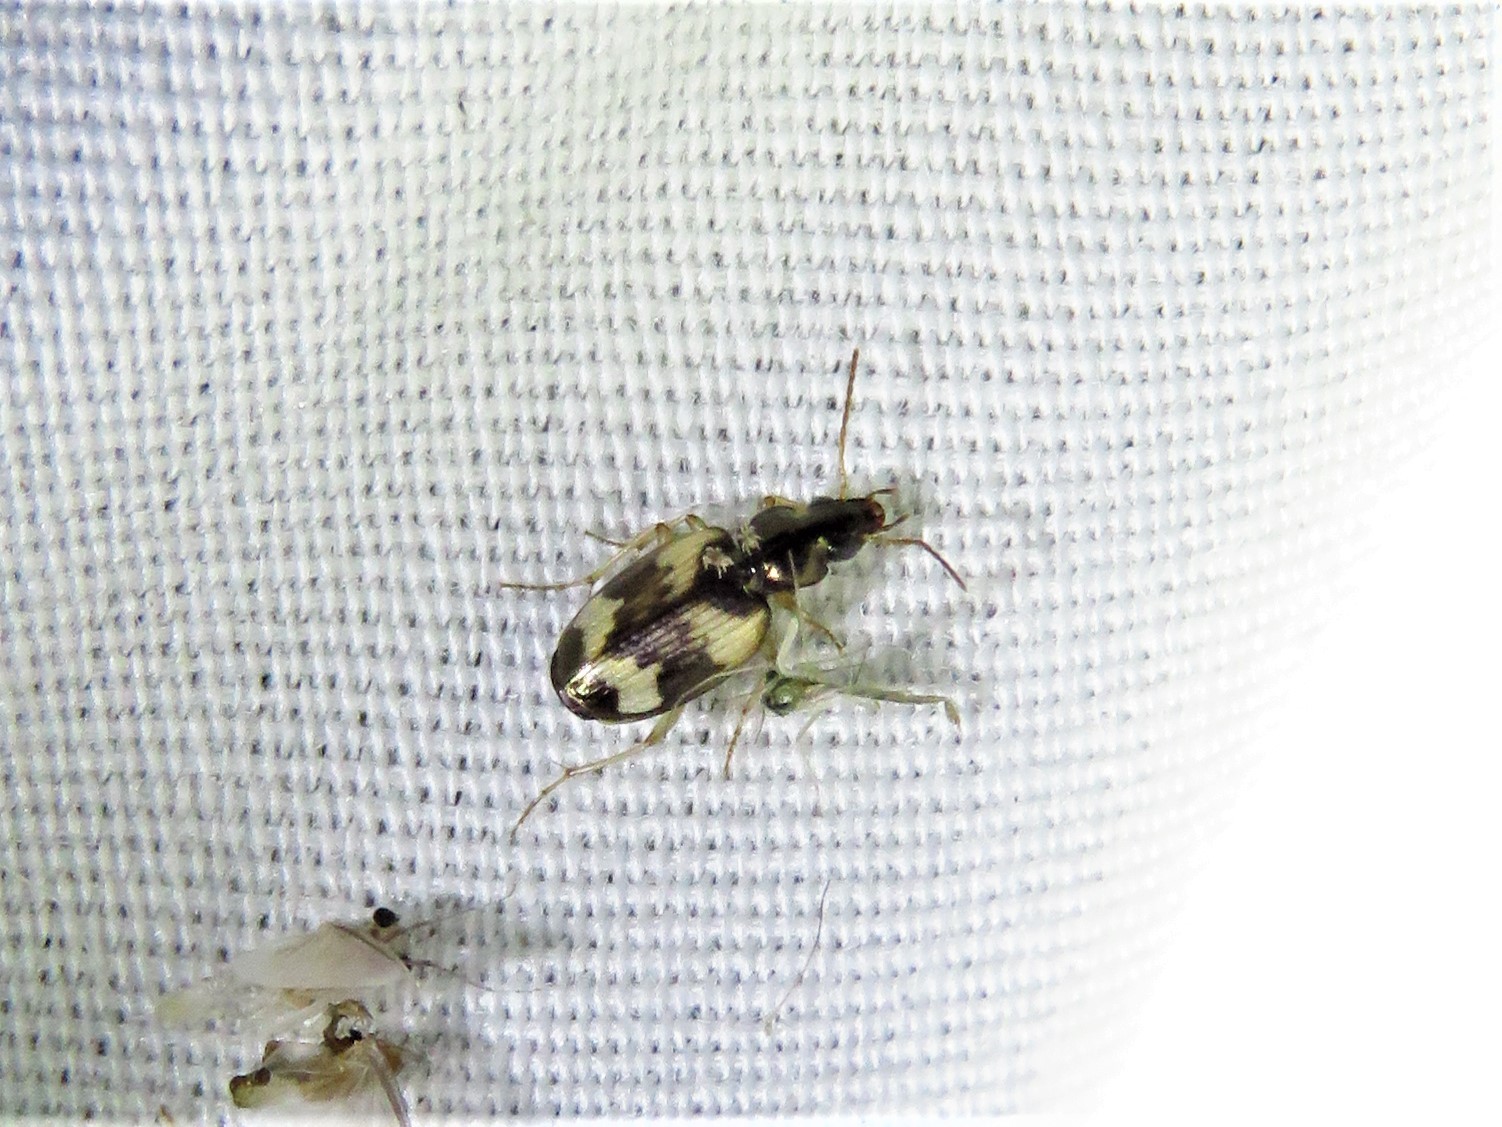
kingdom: Animalia
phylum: Arthropoda
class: Insecta
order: Coleoptera
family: Carabidae
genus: Tetragonoderus
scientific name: Tetragonoderus fasciatus
